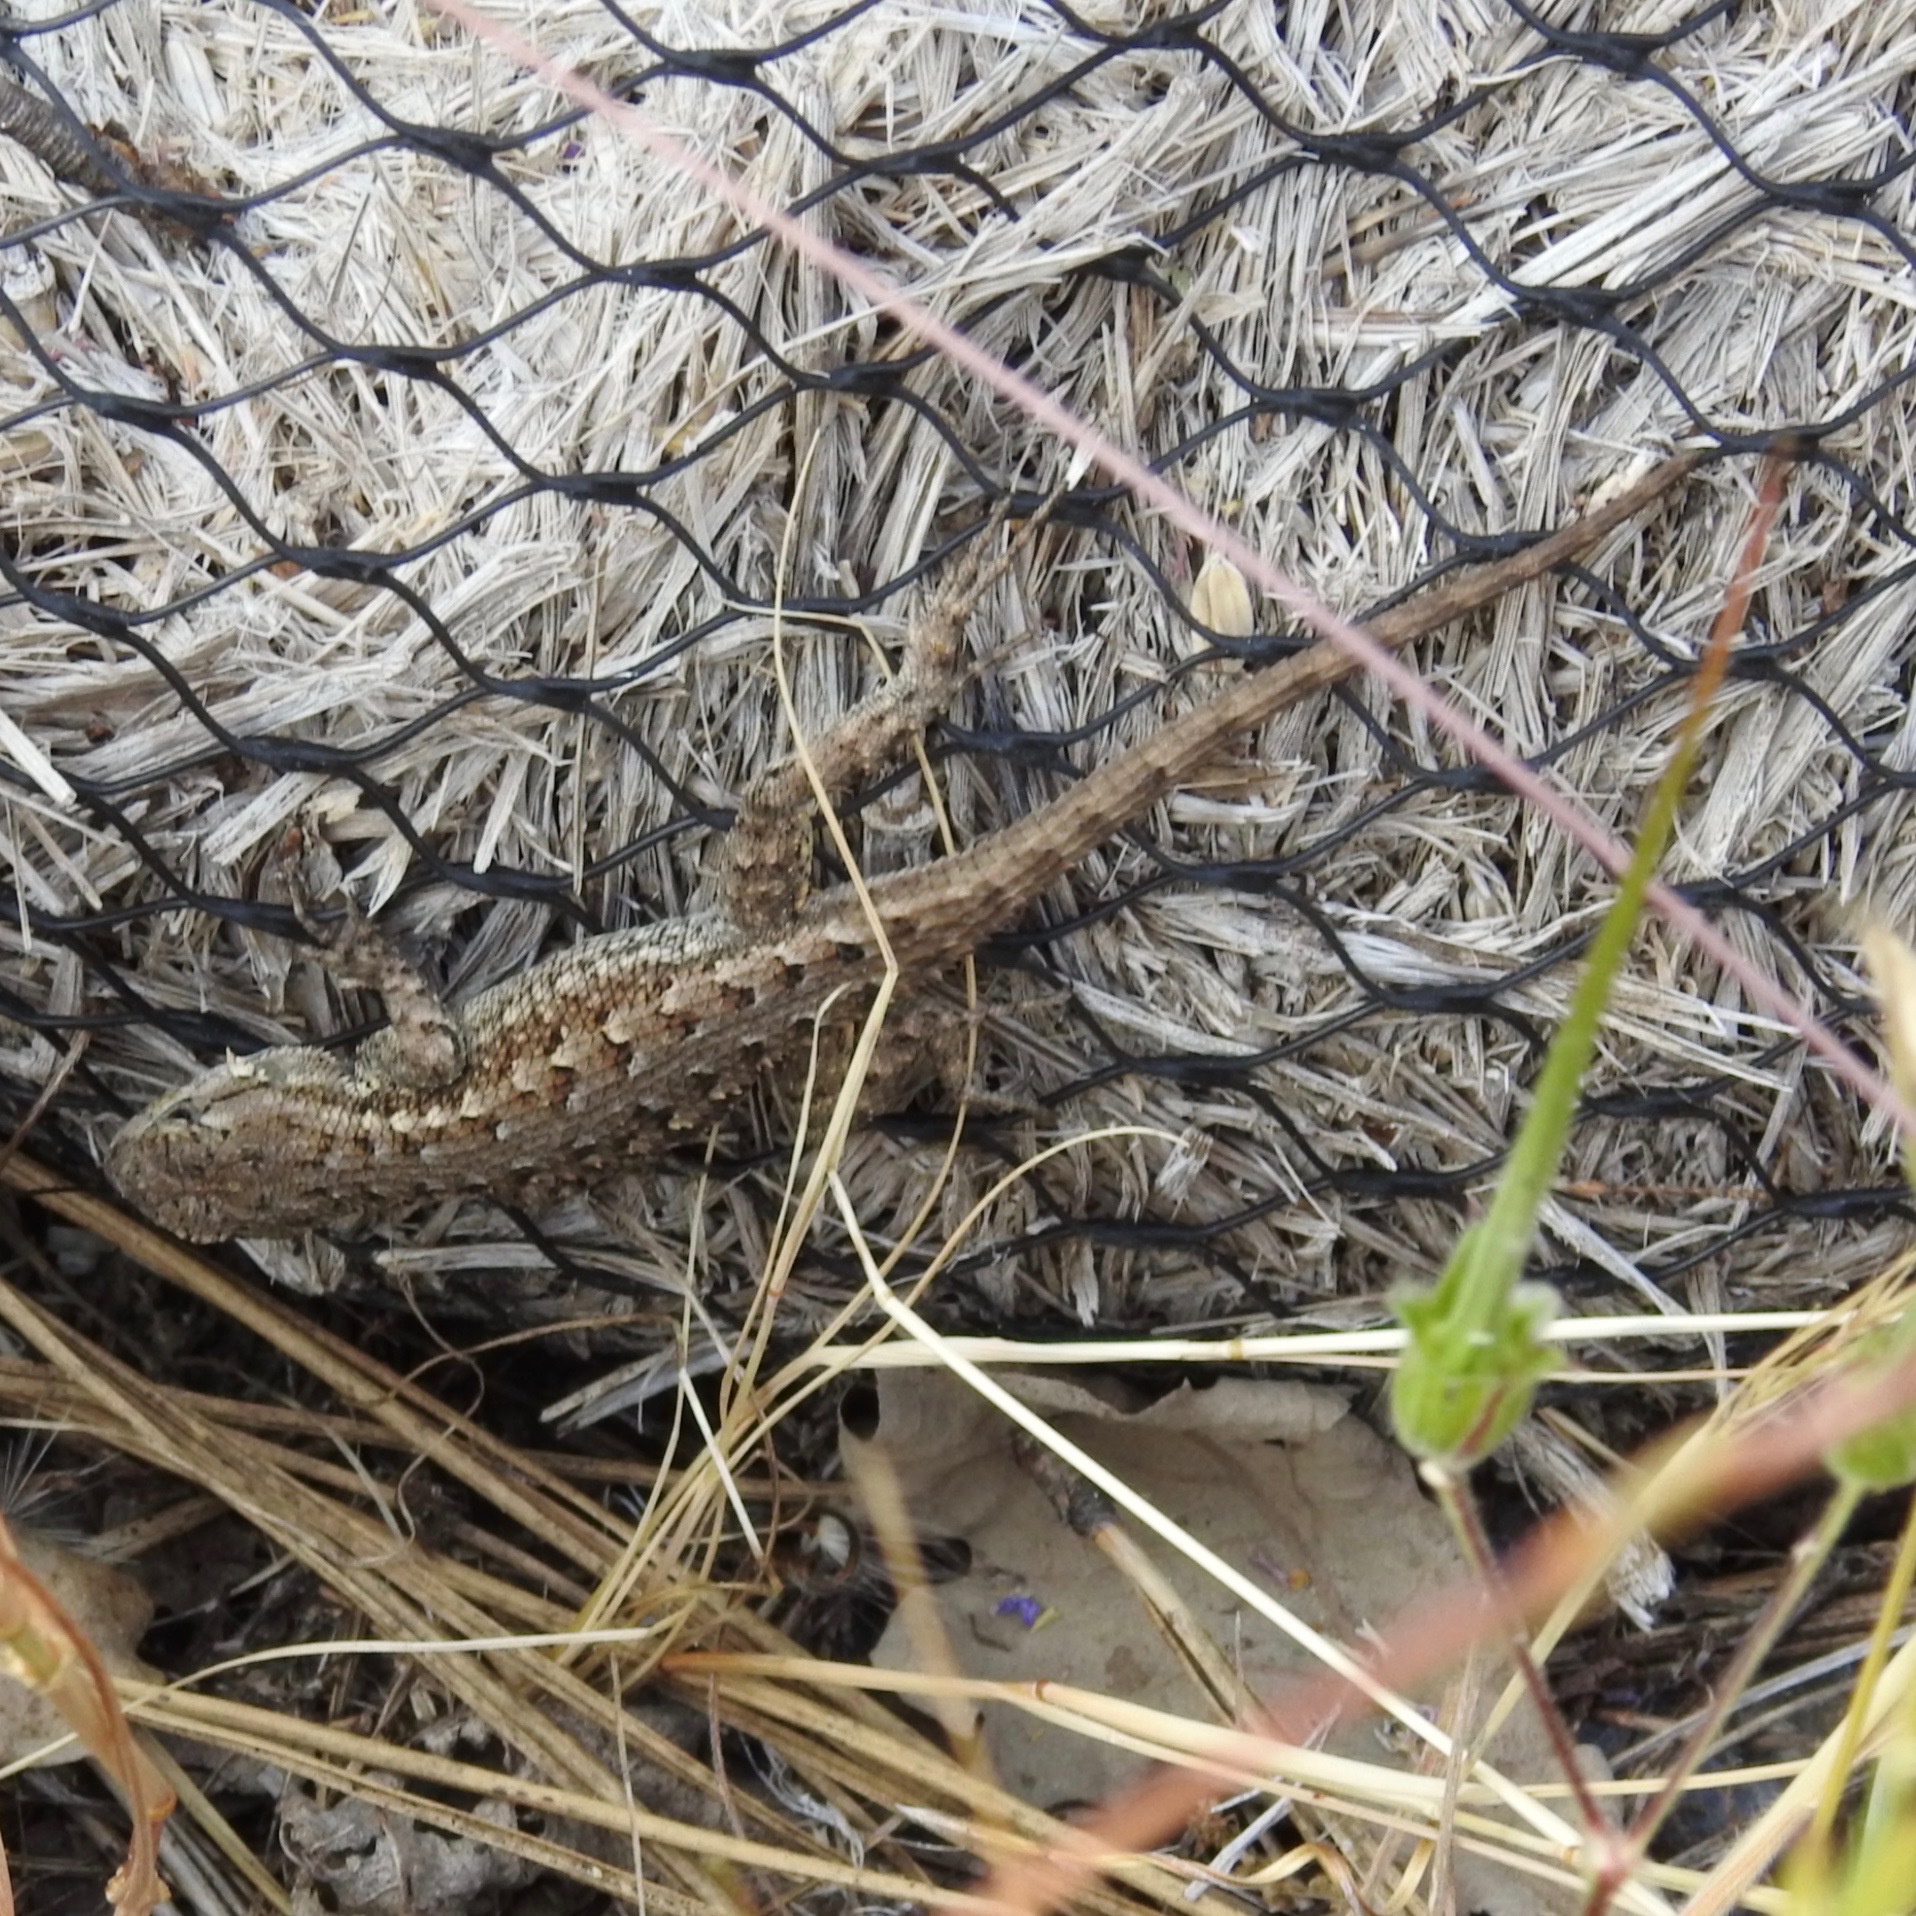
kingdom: Animalia
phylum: Chordata
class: Squamata
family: Phrynosomatidae
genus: Sceloporus
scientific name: Sceloporus occidentalis
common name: Western fence lizard
